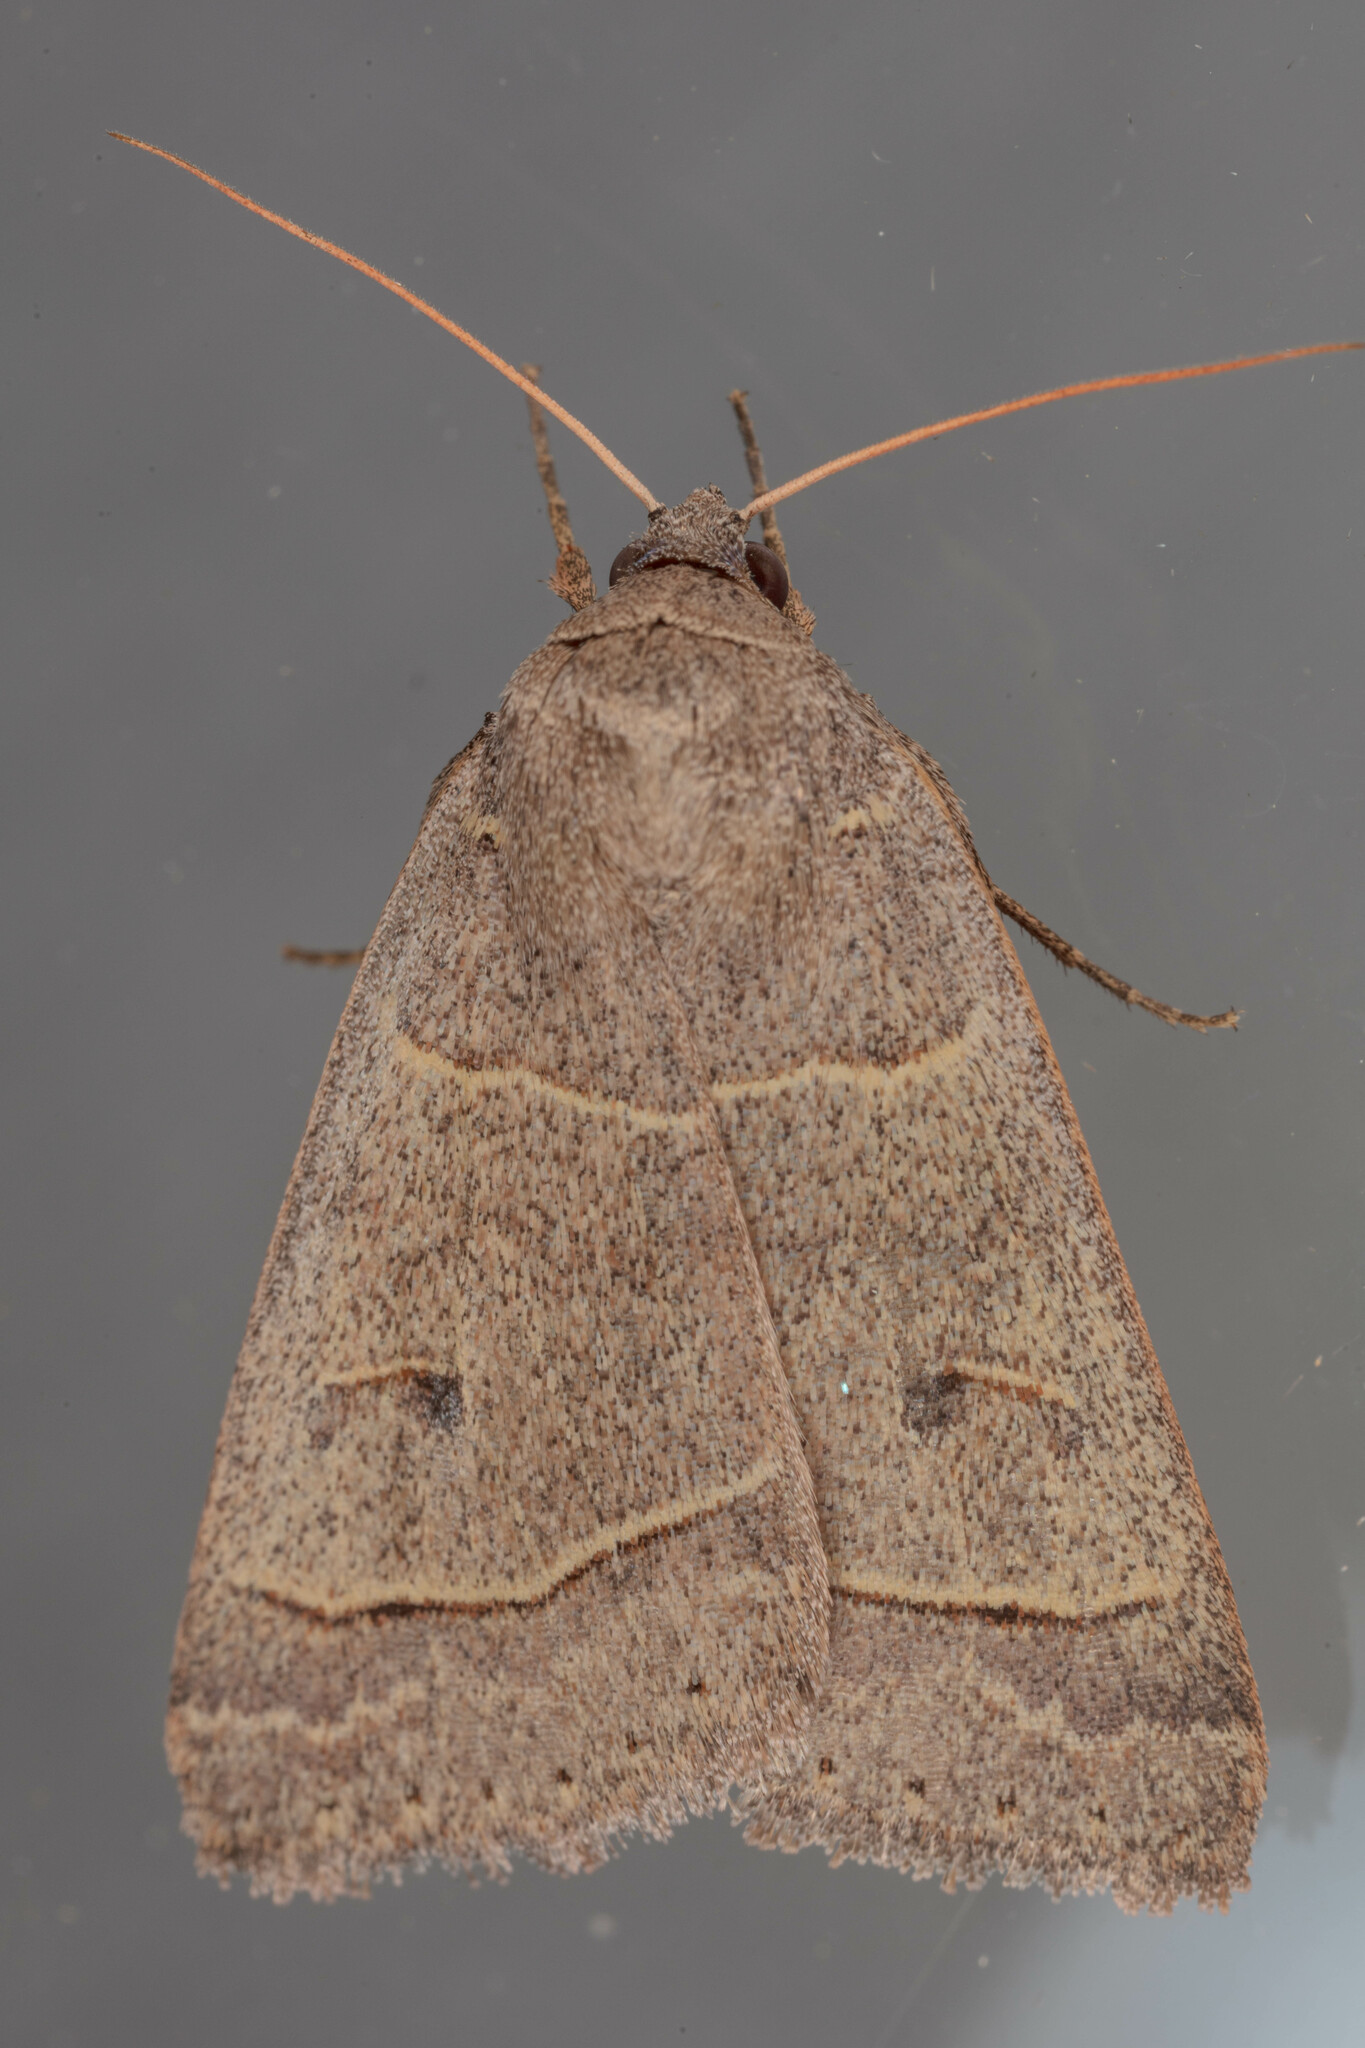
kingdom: Animalia
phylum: Arthropoda
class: Insecta
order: Lepidoptera
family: Erebidae
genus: Phoberia
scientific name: Phoberia atomaris
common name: Common oak moth
